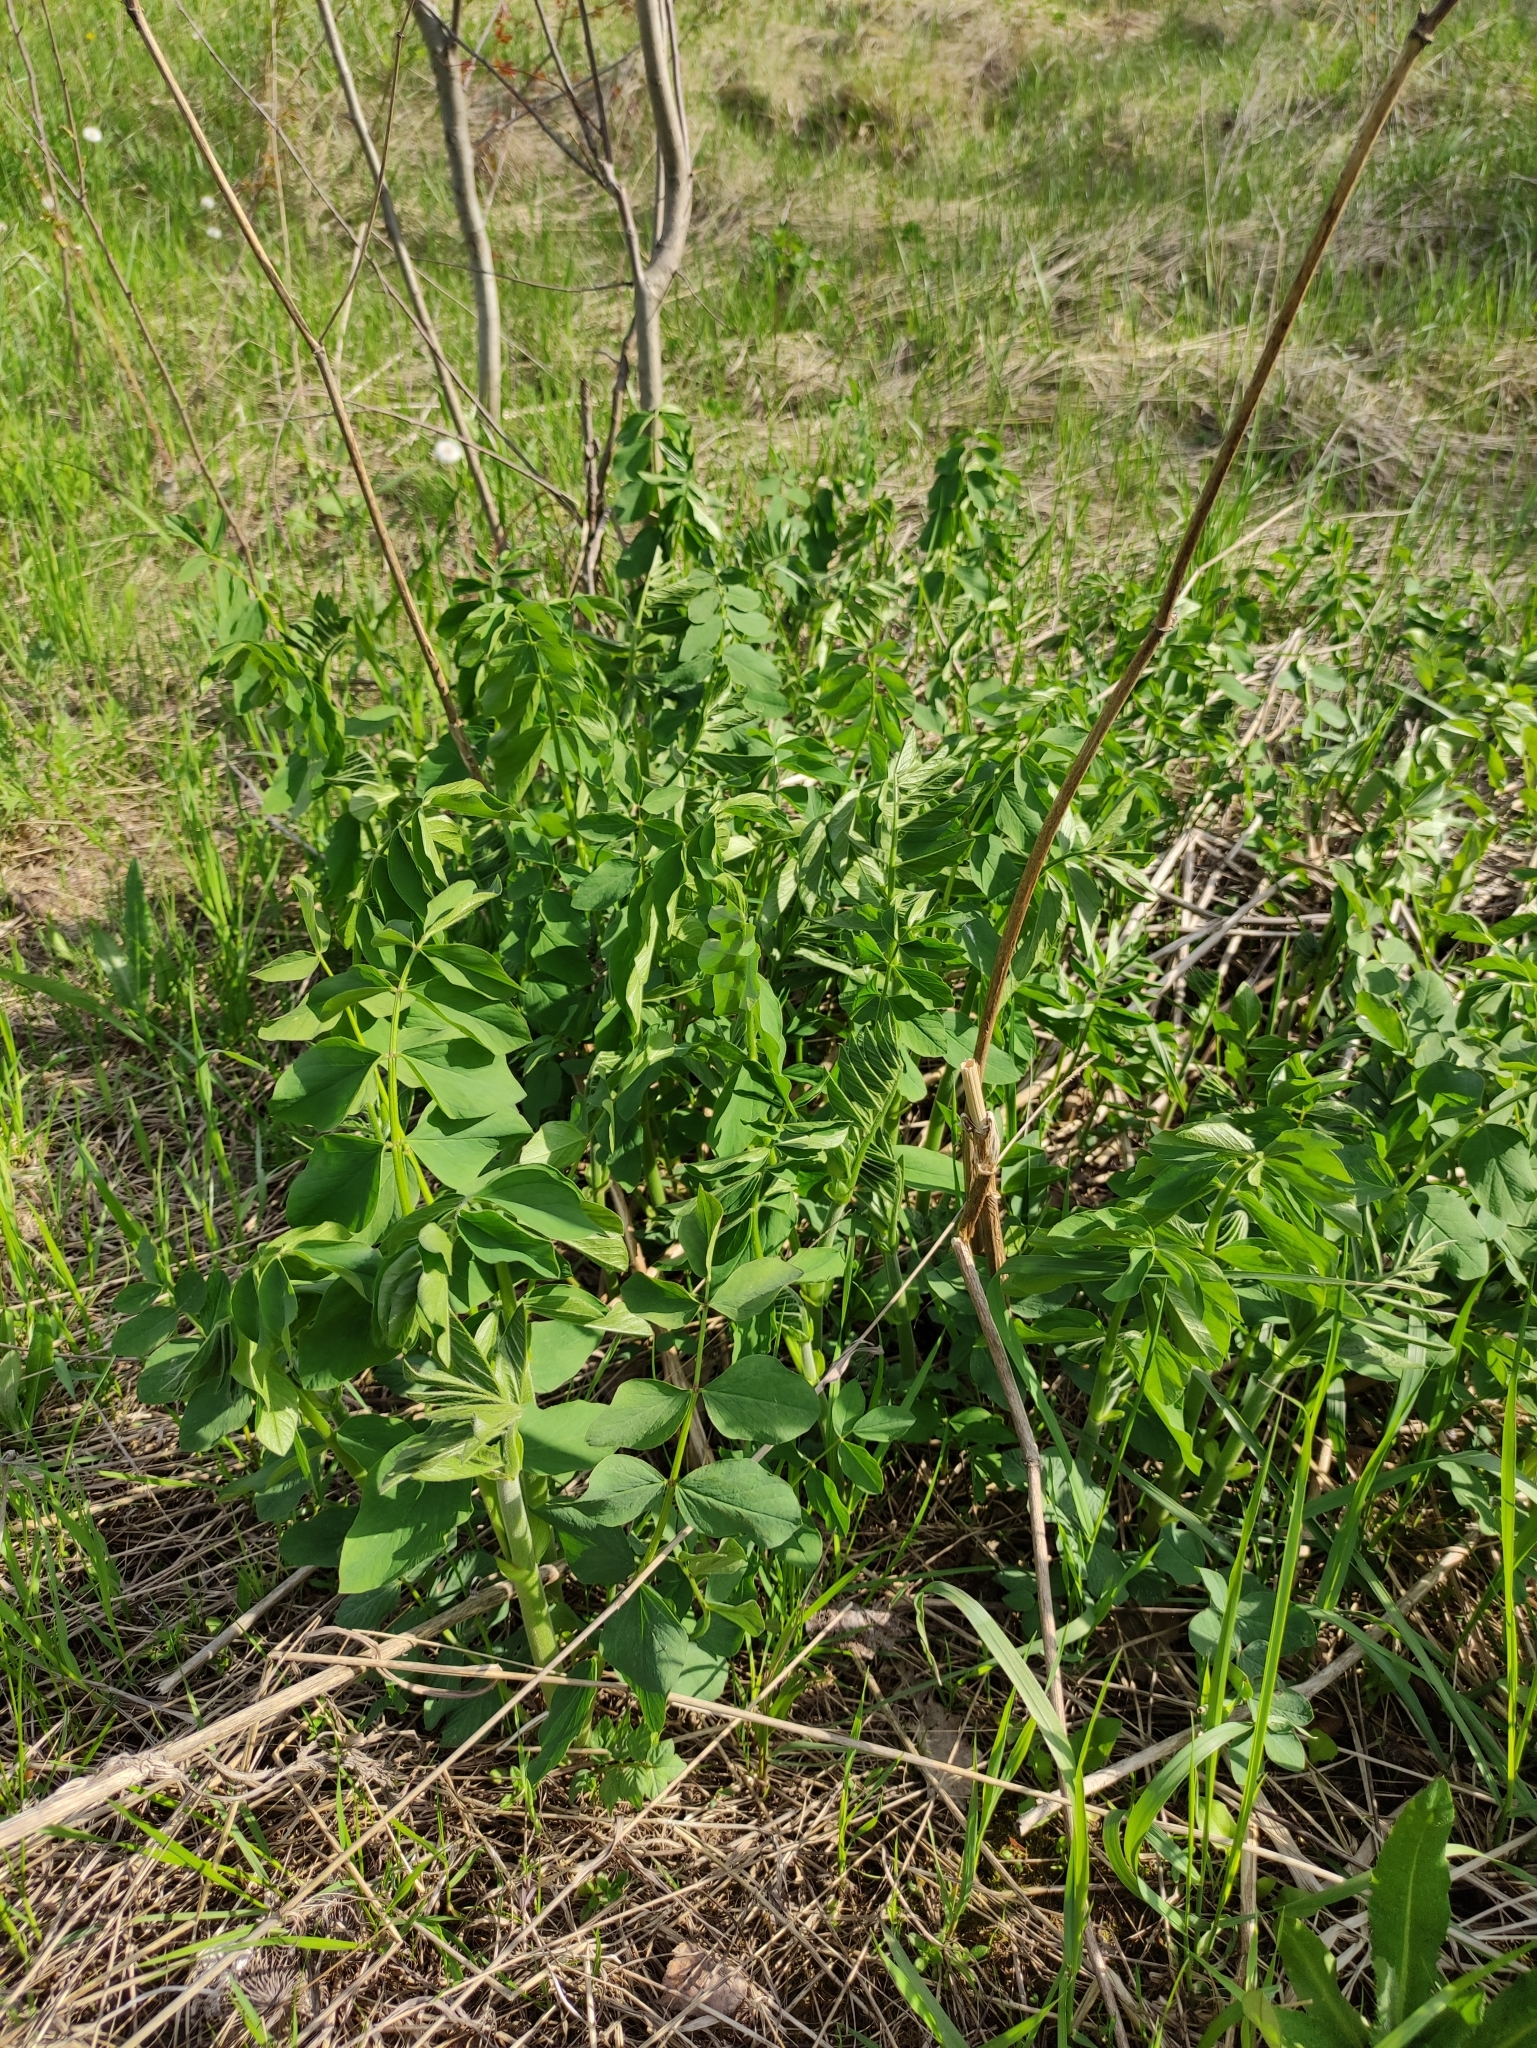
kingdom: Plantae
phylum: Tracheophyta
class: Magnoliopsida
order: Fabales
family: Fabaceae
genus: Galega
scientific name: Galega orientalis
